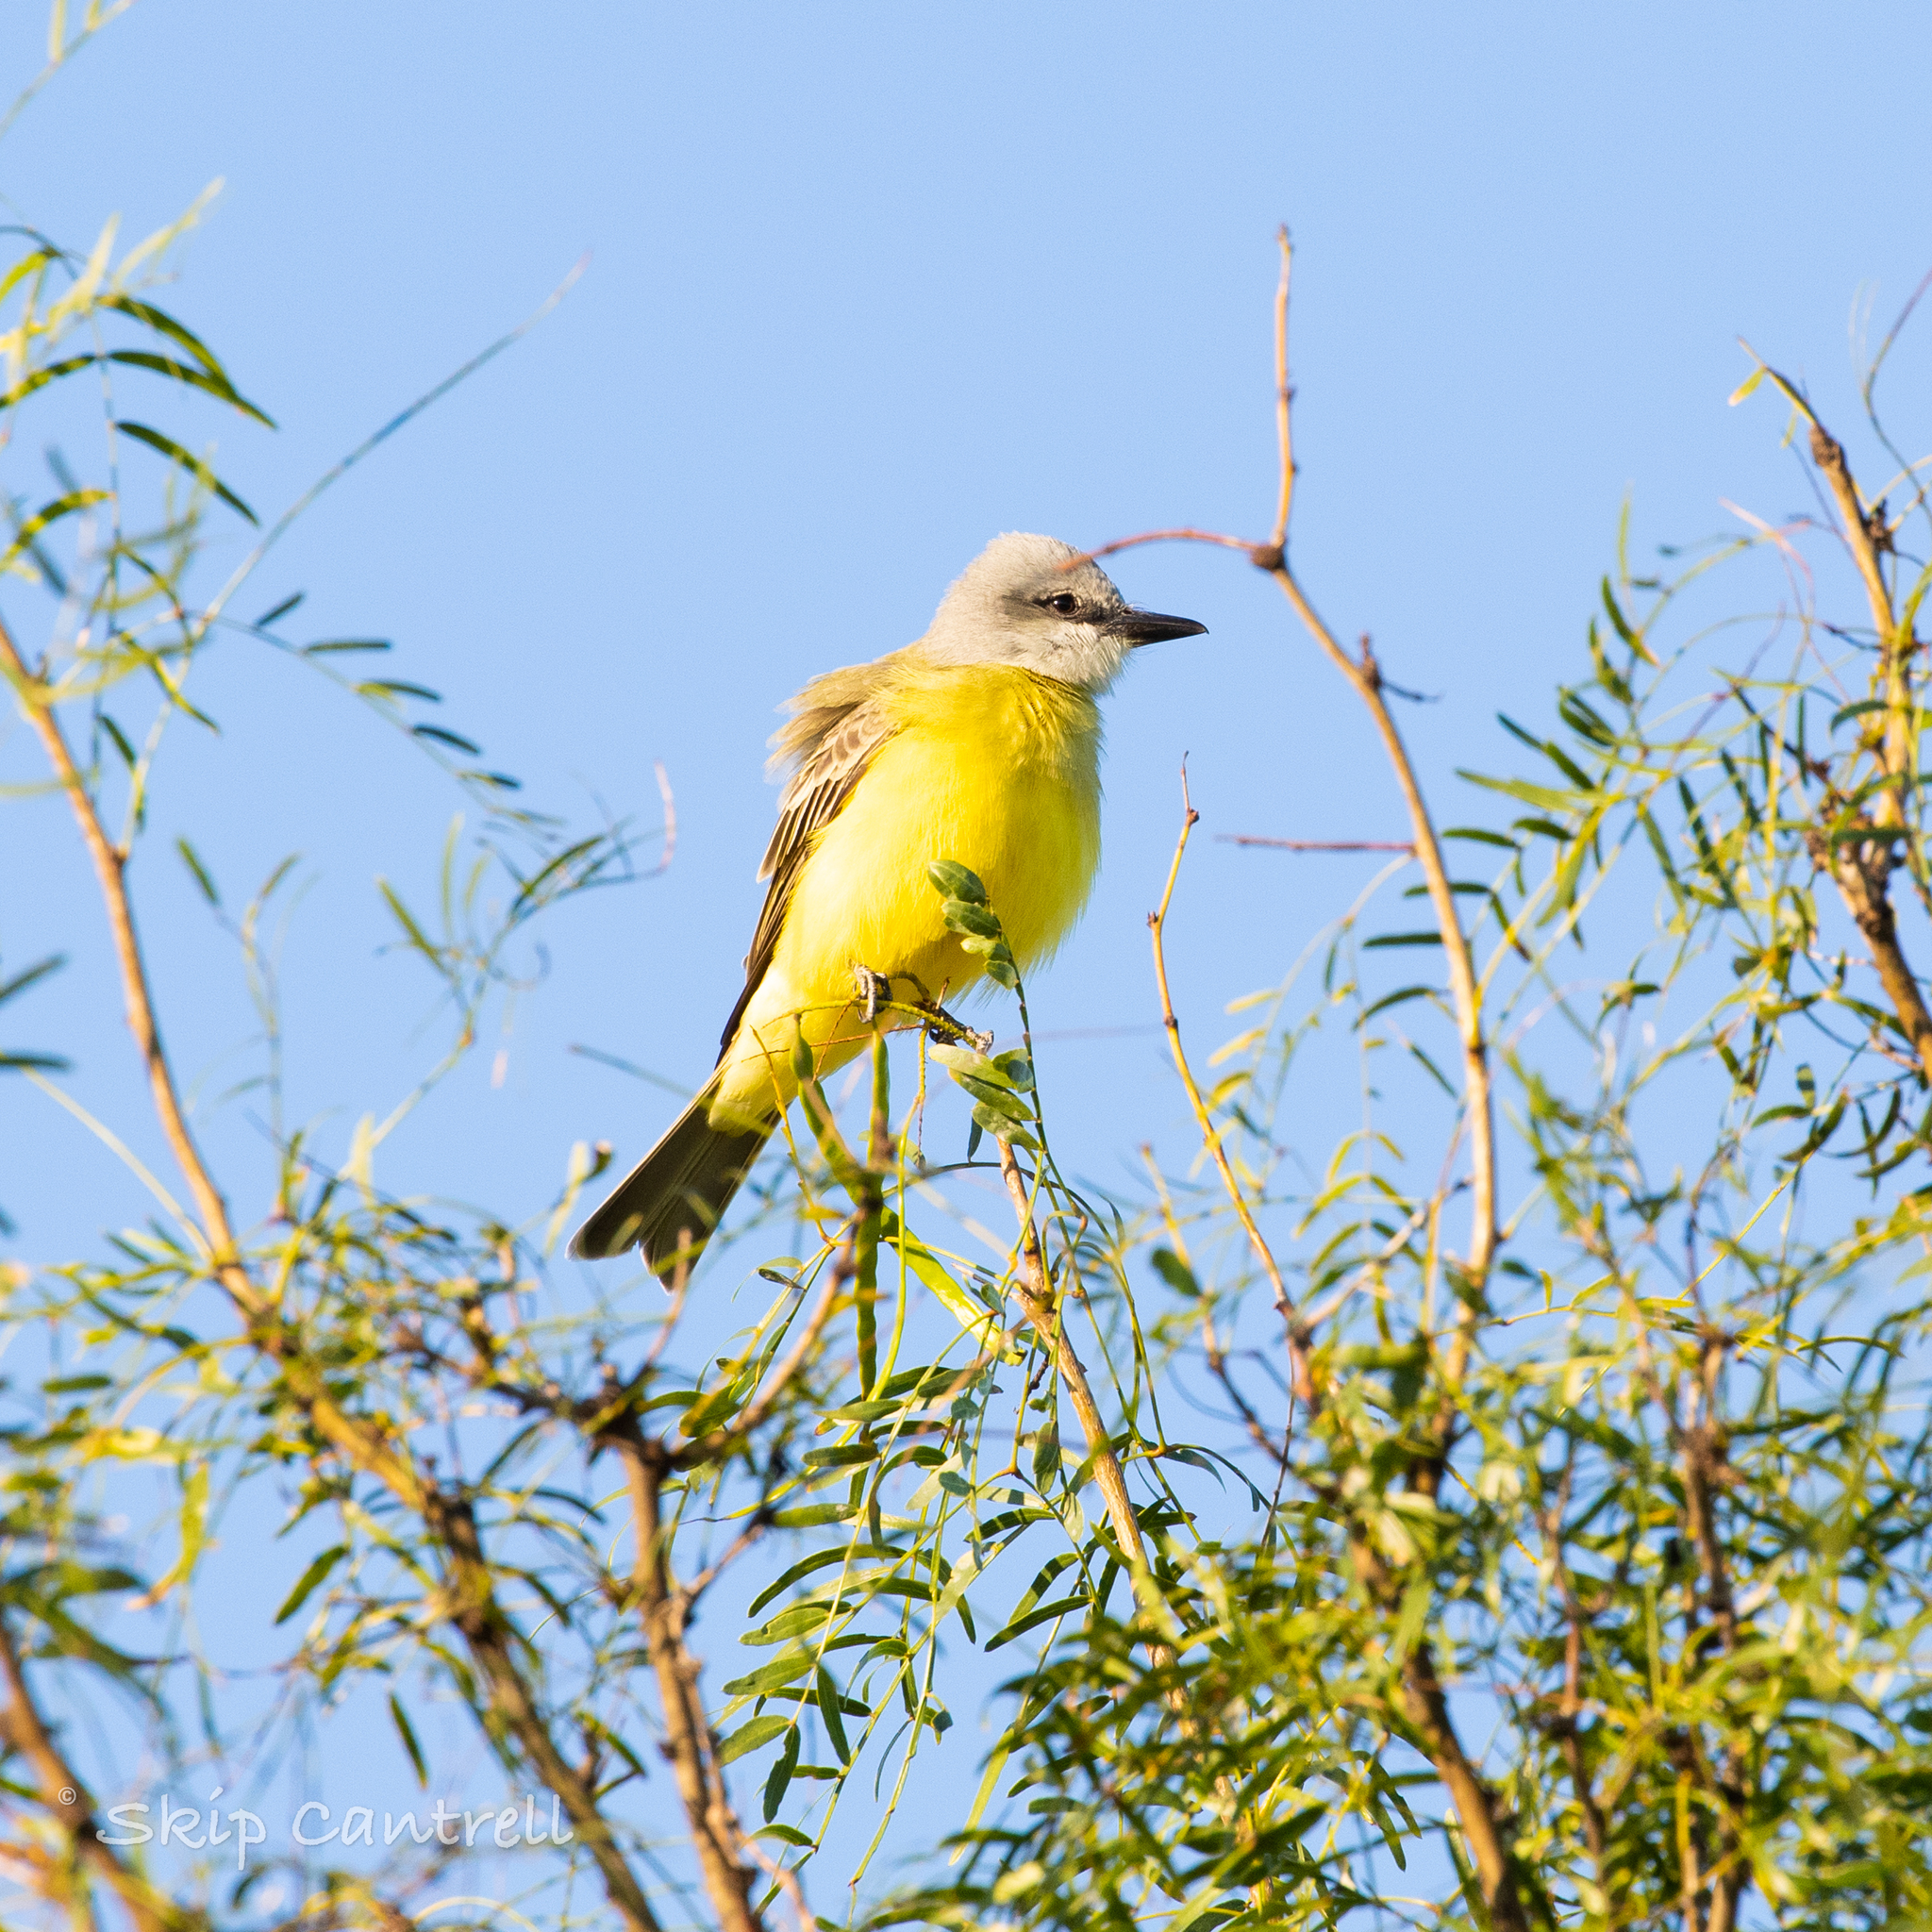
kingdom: Animalia
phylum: Chordata
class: Aves
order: Passeriformes
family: Tyrannidae
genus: Tyrannus
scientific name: Tyrannus melancholicus
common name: Tropical kingbird
